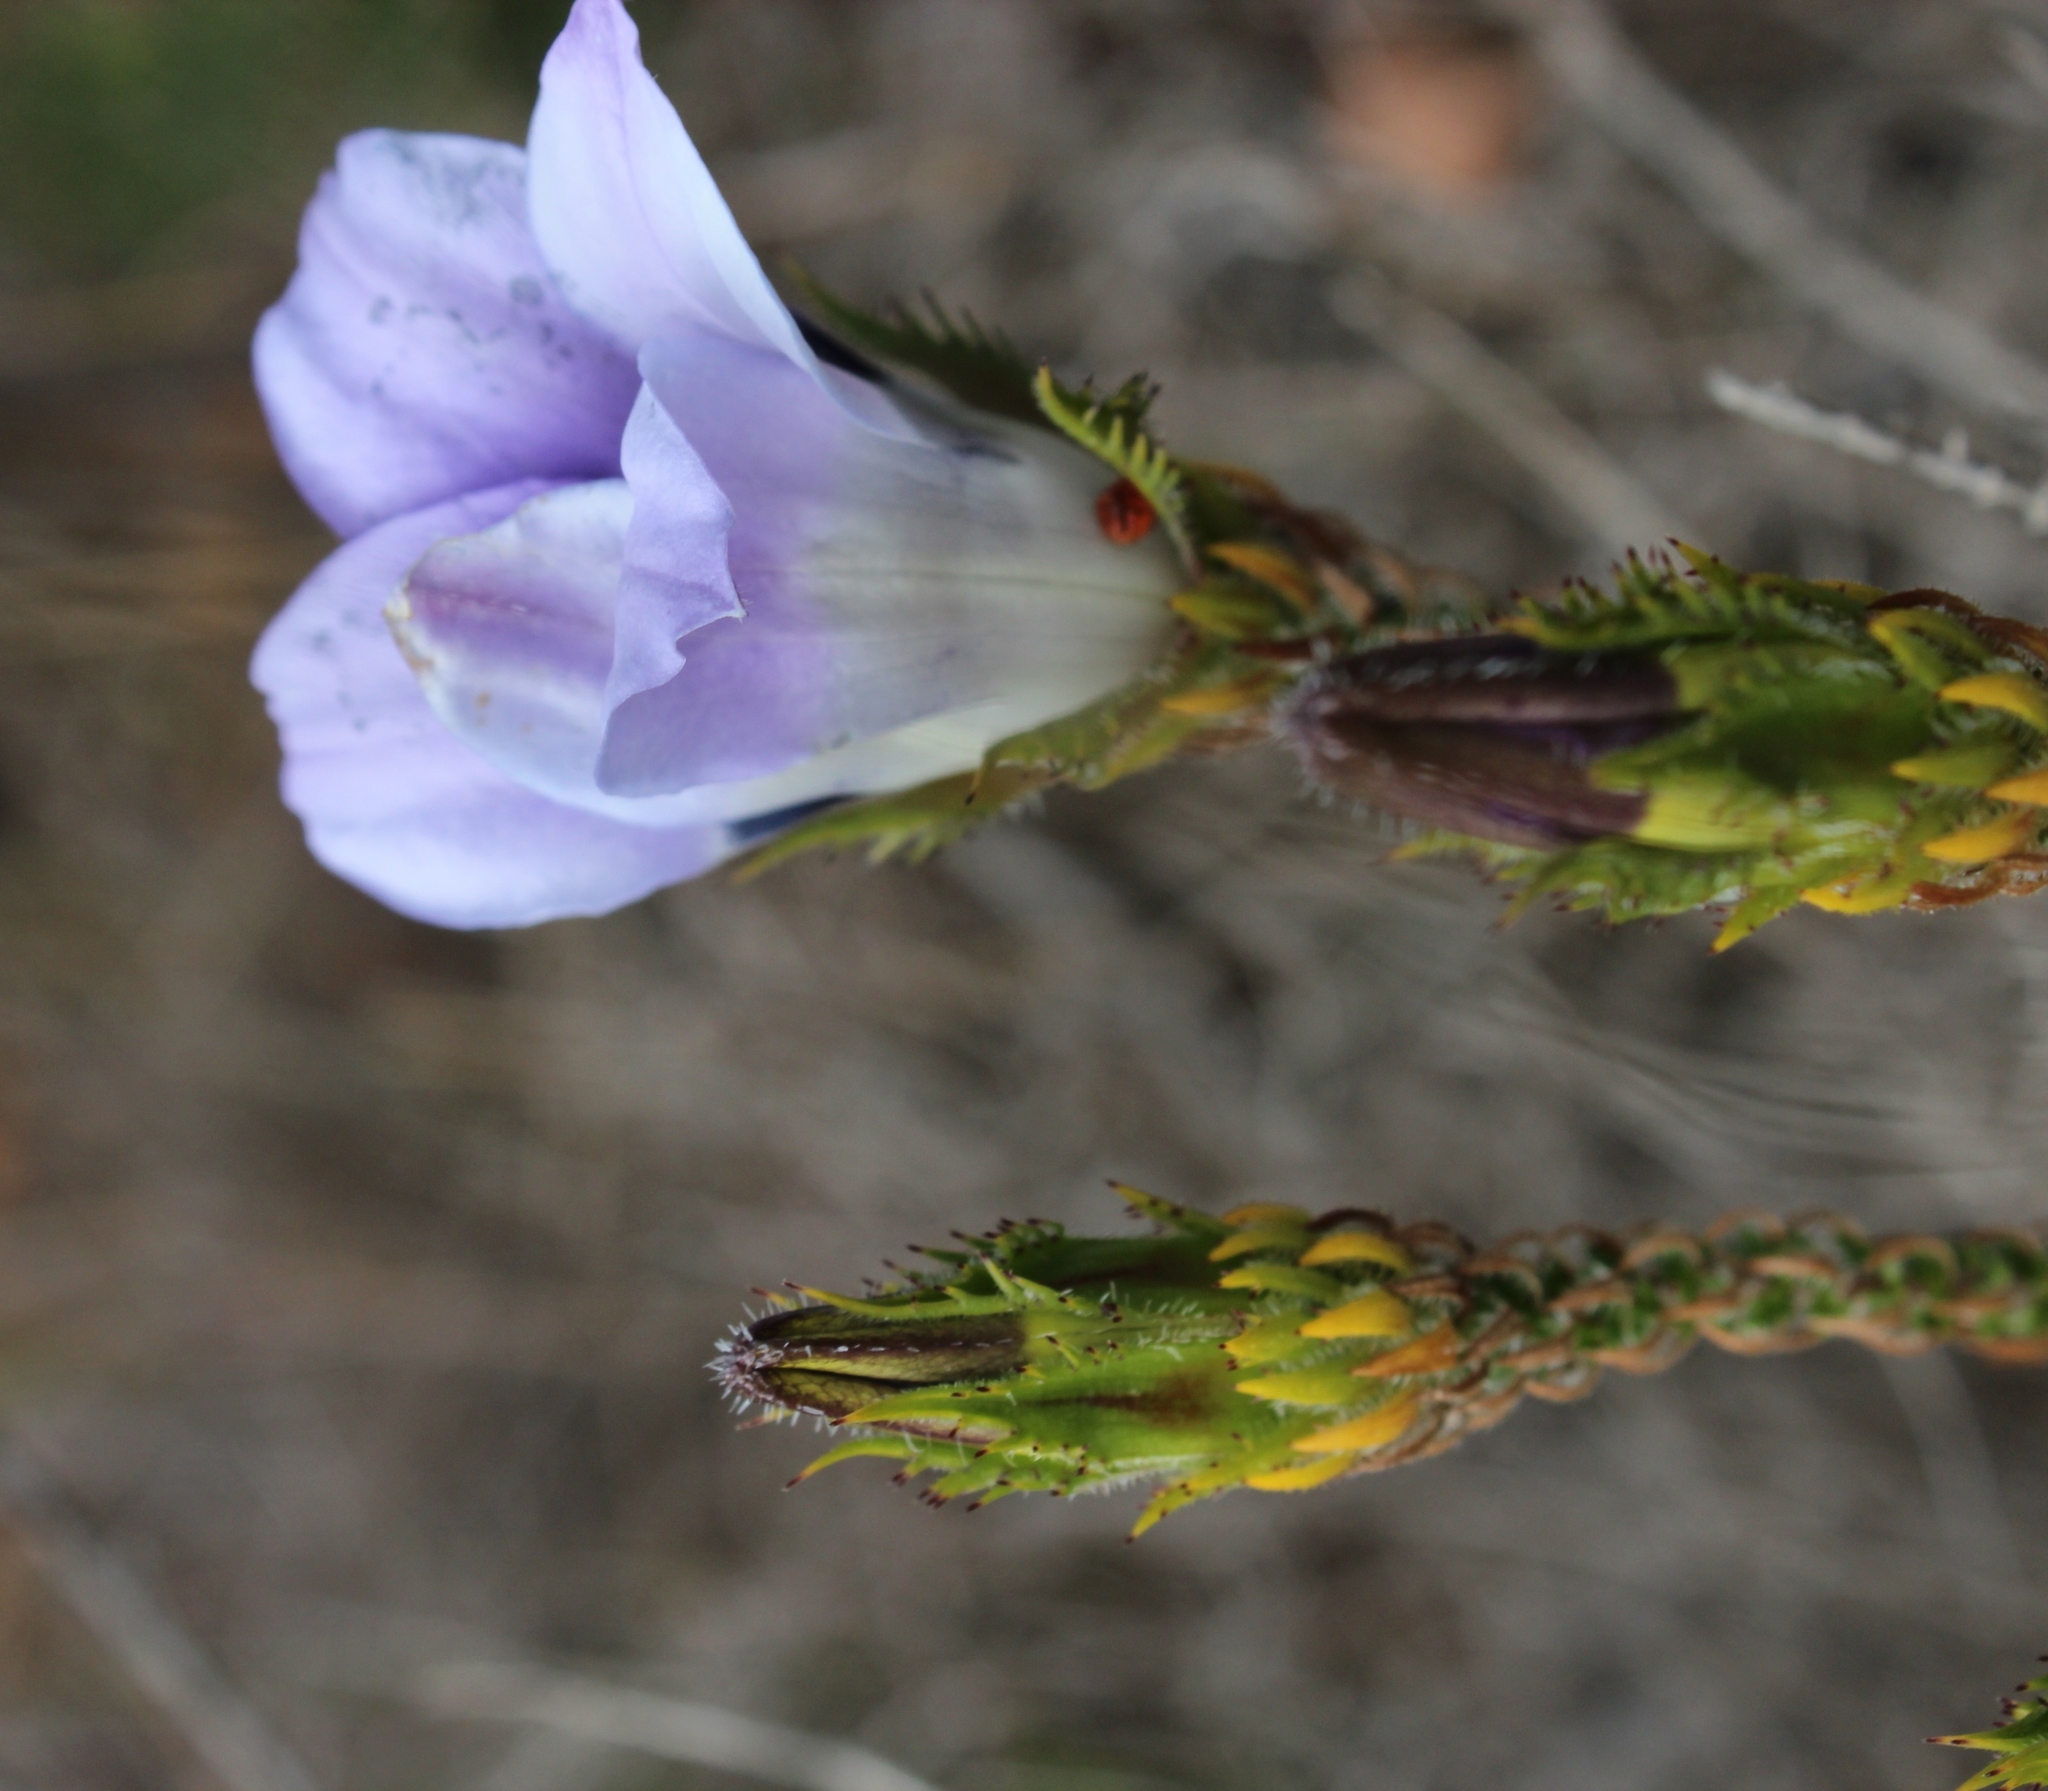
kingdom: Plantae
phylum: Tracheophyta
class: Magnoliopsida
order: Asterales
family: Campanulaceae
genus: Roella
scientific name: Roella ciliata
